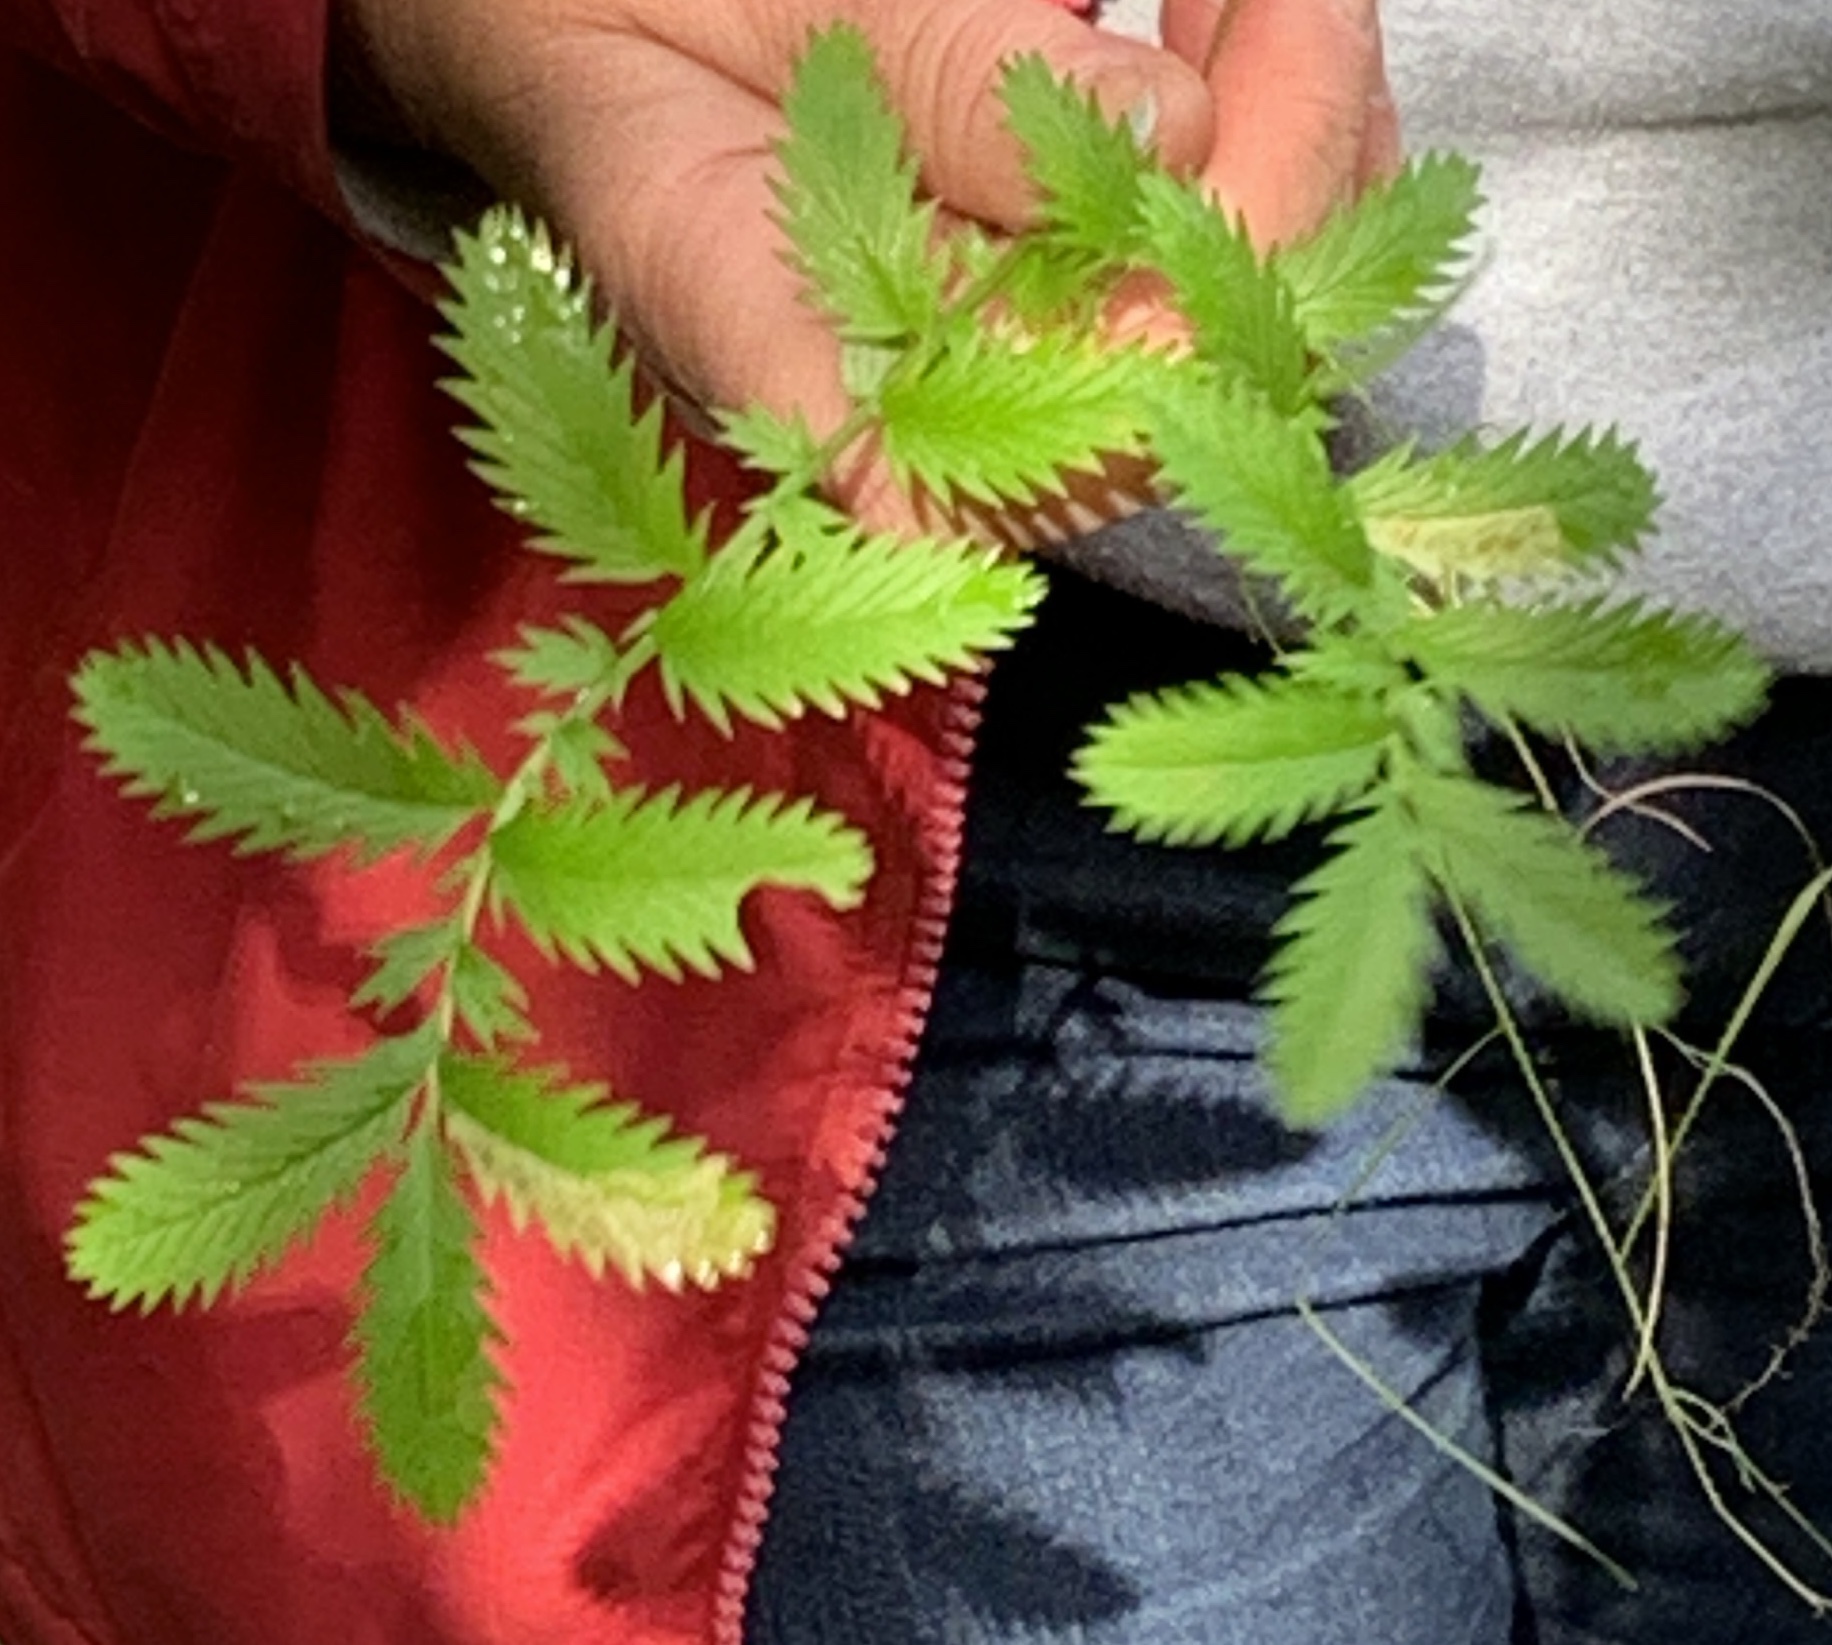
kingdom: Plantae
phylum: Tracheophyta
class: Magnoliopsida
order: Rosales
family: Rosaceae
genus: Argentina
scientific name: Argentina anserina
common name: Common silverweed
